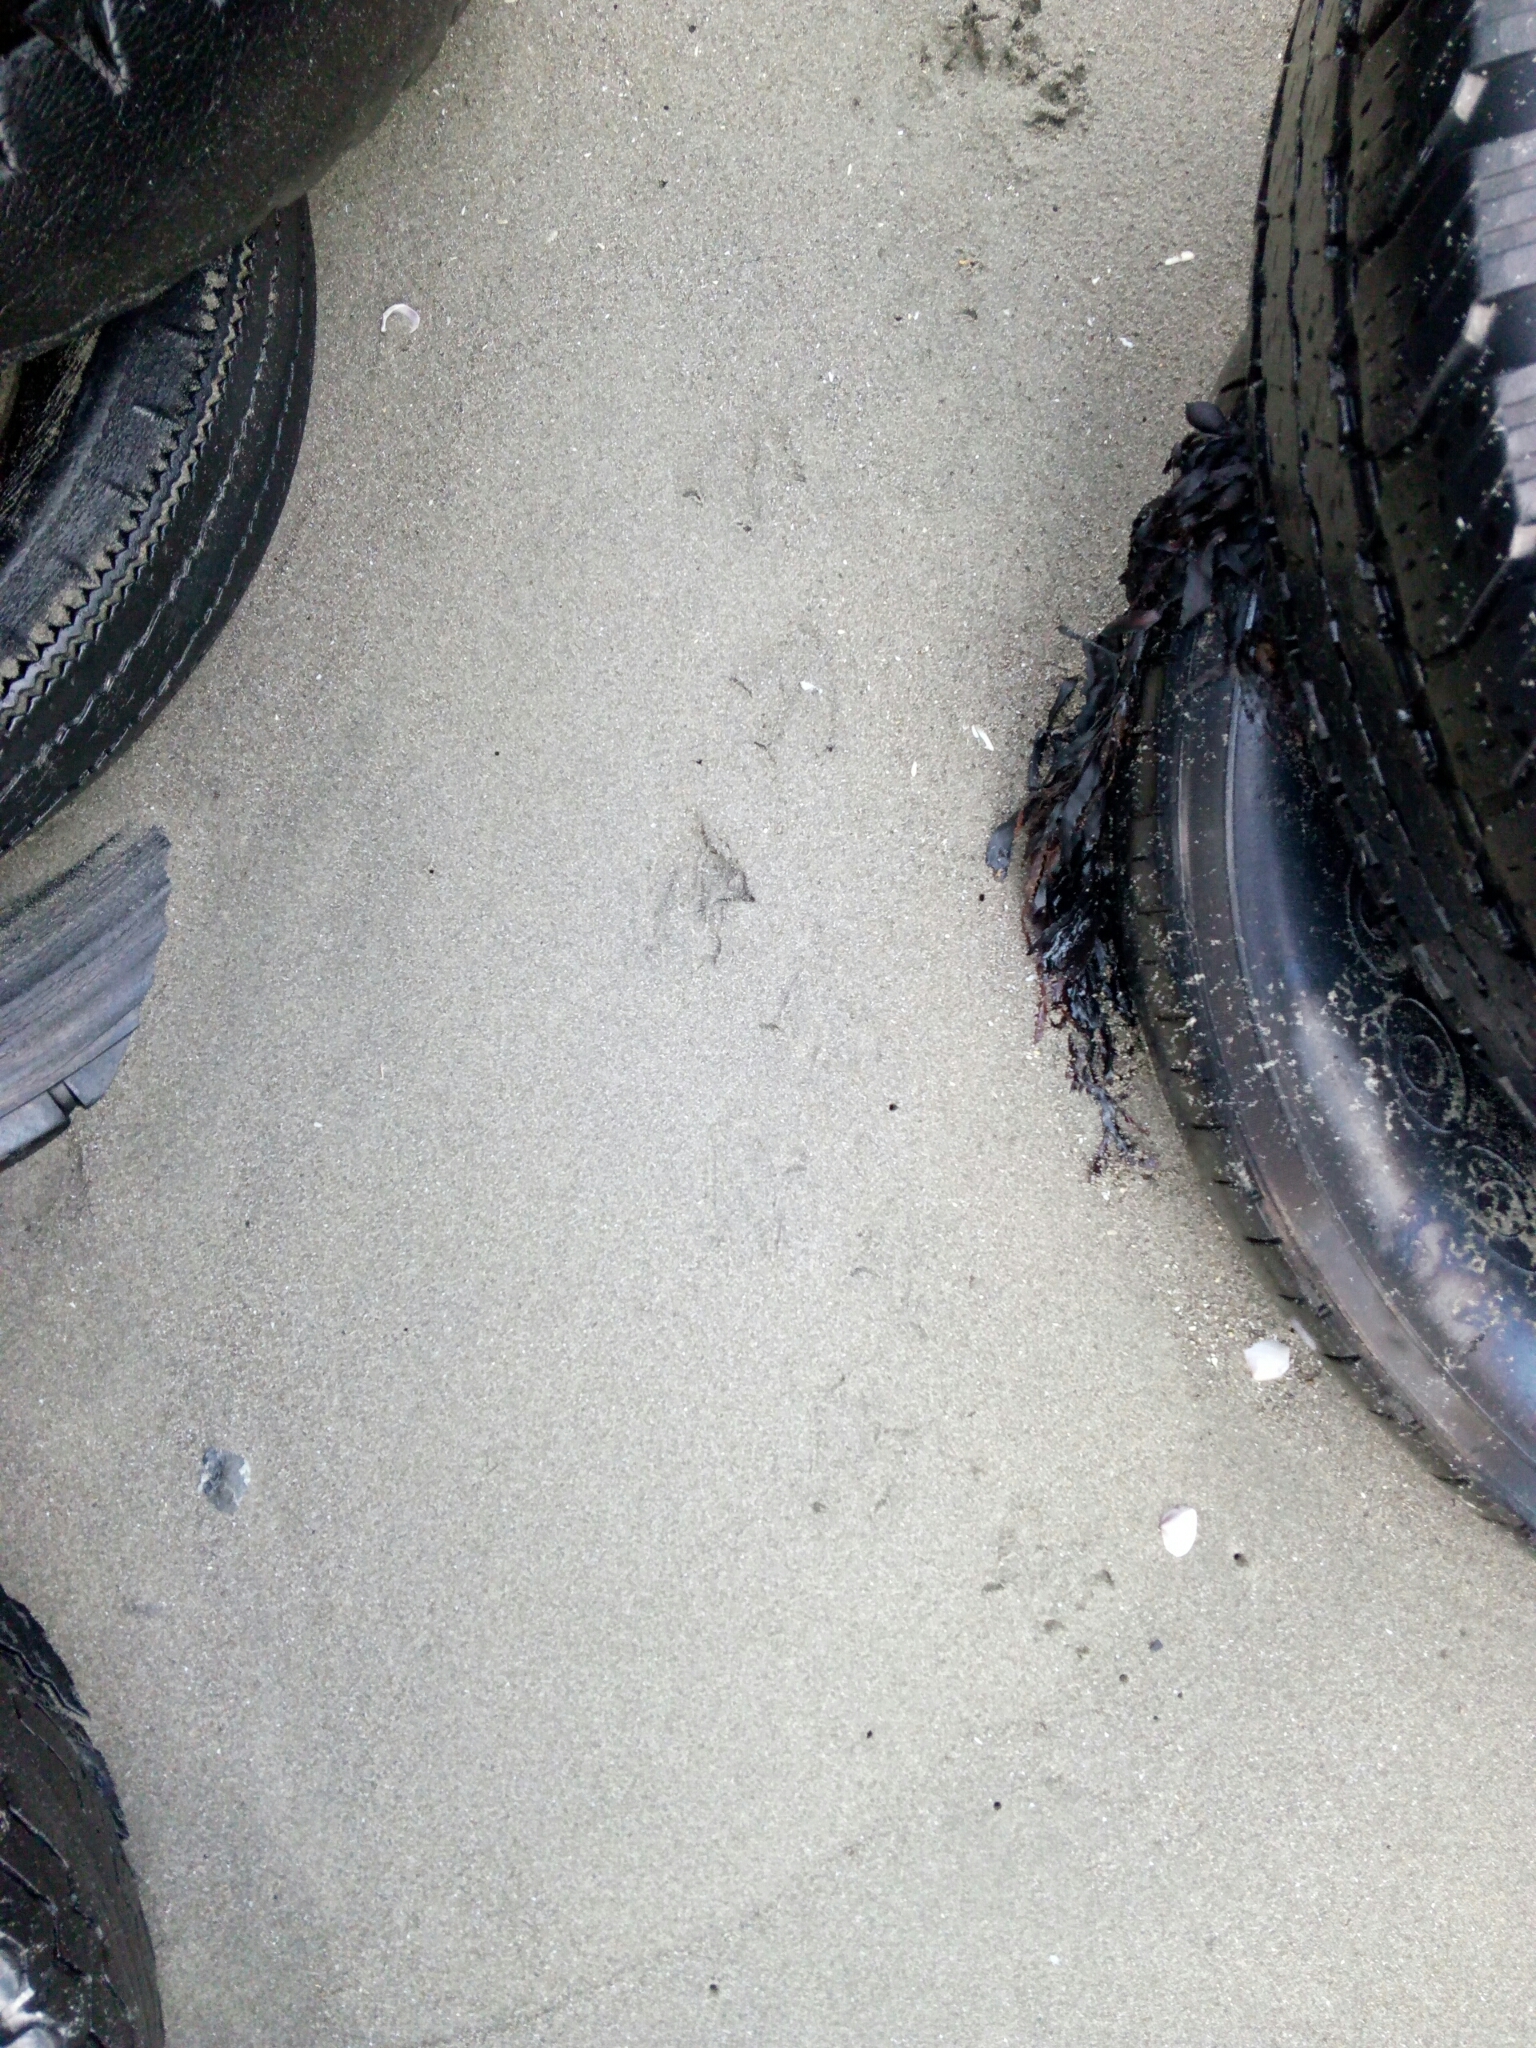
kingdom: Animalia
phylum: Chordata
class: Aves
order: Sphenisciformes
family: Spheniscidae
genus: Eudyptula
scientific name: Eudyptula minor
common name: Little penguin
